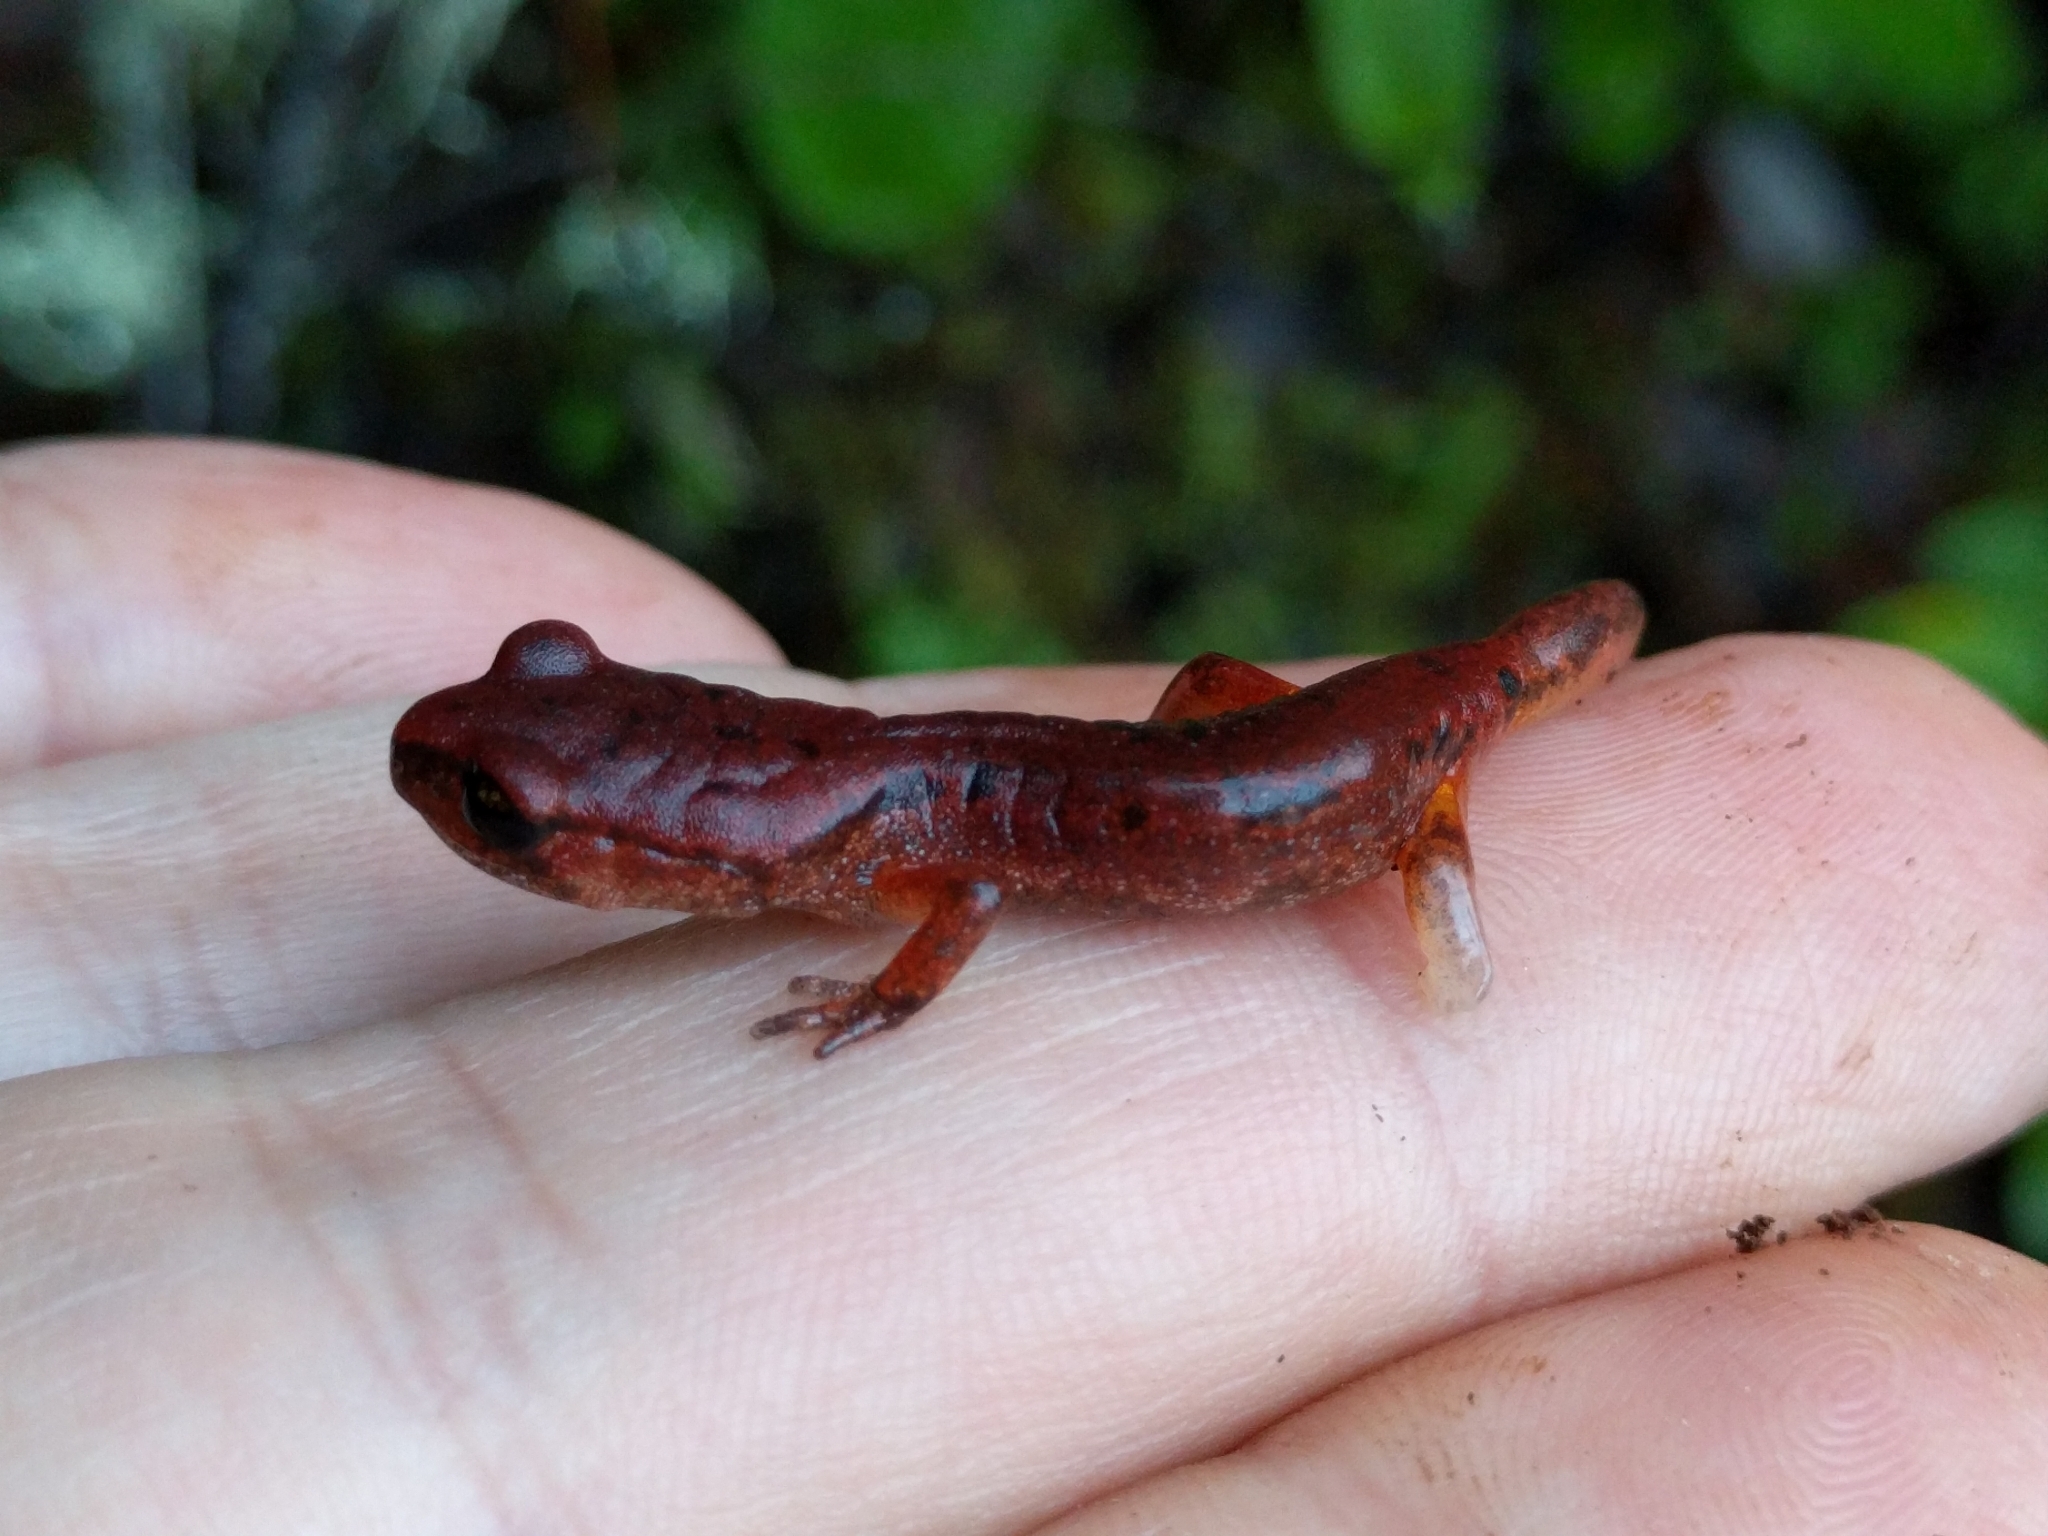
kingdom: Animalia
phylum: Chordata
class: Amphibia
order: Caudata
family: Plethodontidae
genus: Ensatina
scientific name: Ensatina eschscholtzii
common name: Ensatina
